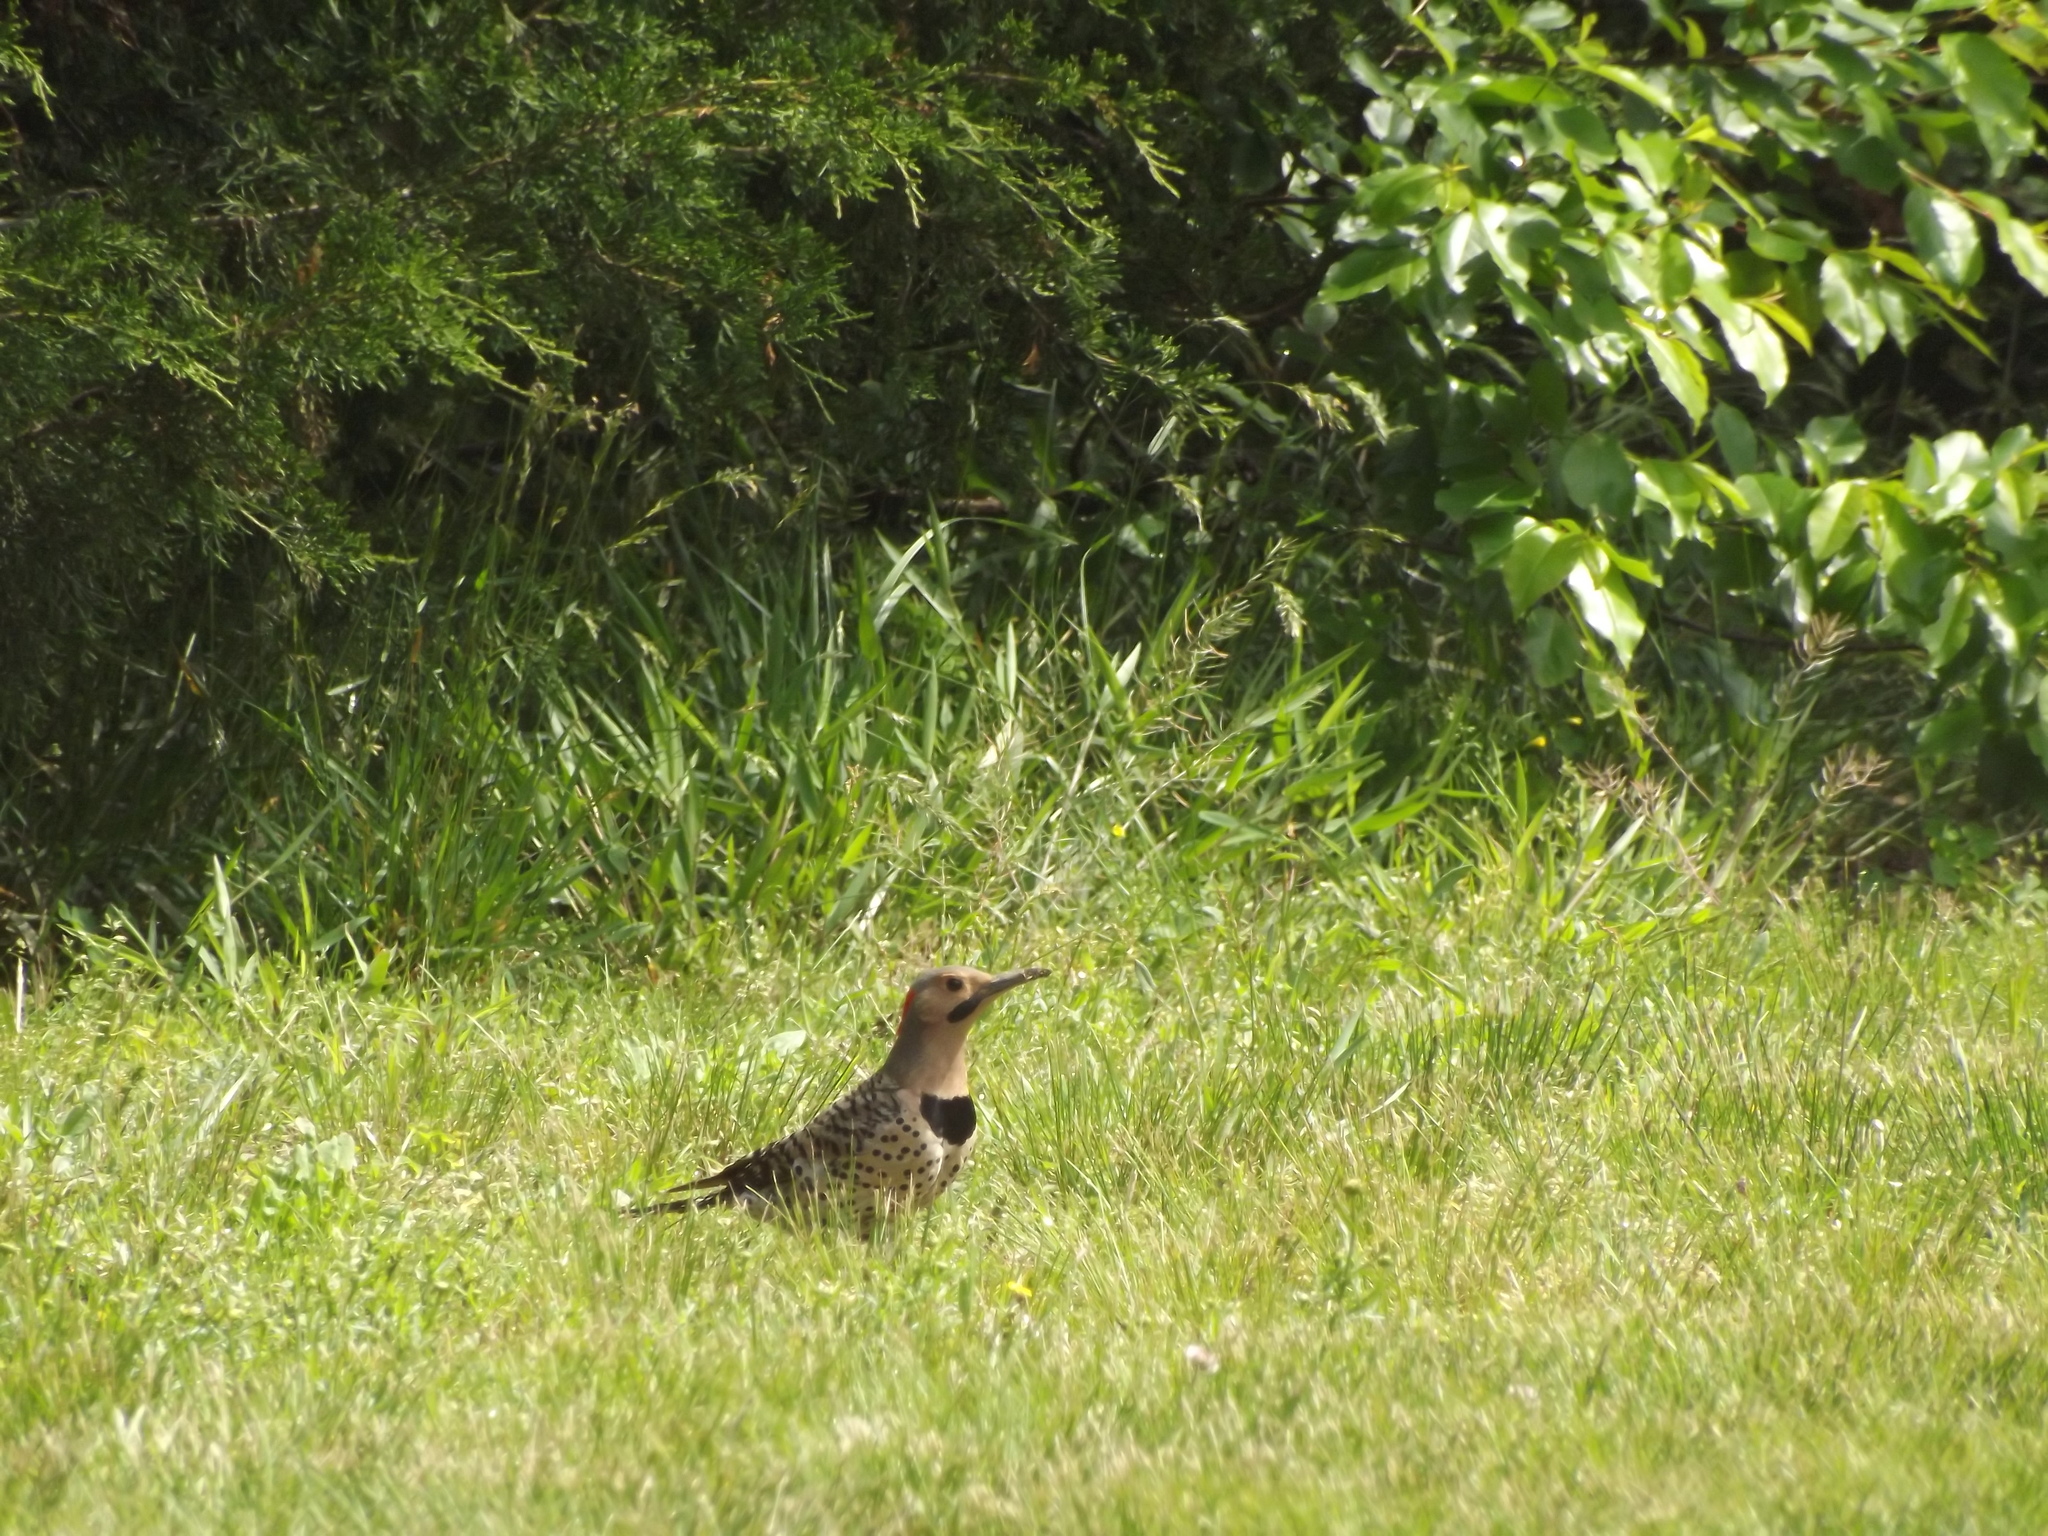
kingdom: Animalia
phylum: Chordata
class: Aves
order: Piciformes
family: Picidae
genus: Colaptes
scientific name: Colaptes auratus
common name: Northern flicker
